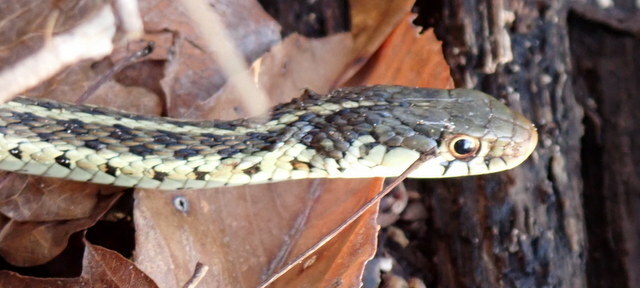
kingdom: Animalia
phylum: Chordata
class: Squamata
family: Colubridae
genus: Thamnophis
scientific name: Thamnophis sirtalis
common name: Common garter snake
